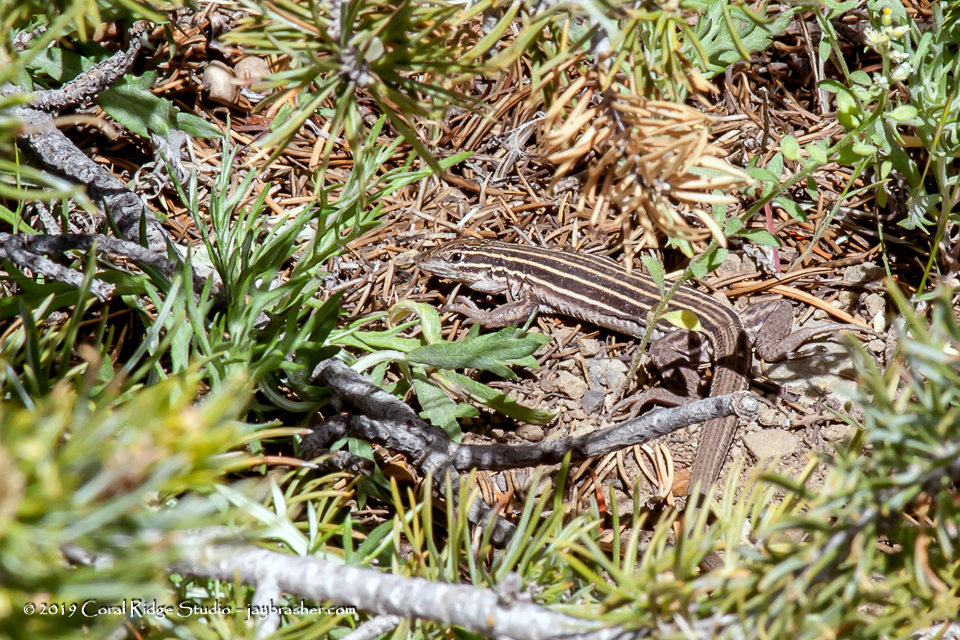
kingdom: Animalia
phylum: Chordata
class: Squamata
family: Teiidae
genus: Aspidoscelis
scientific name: Aspidoscelis velox
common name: Plateau striped whiptail
